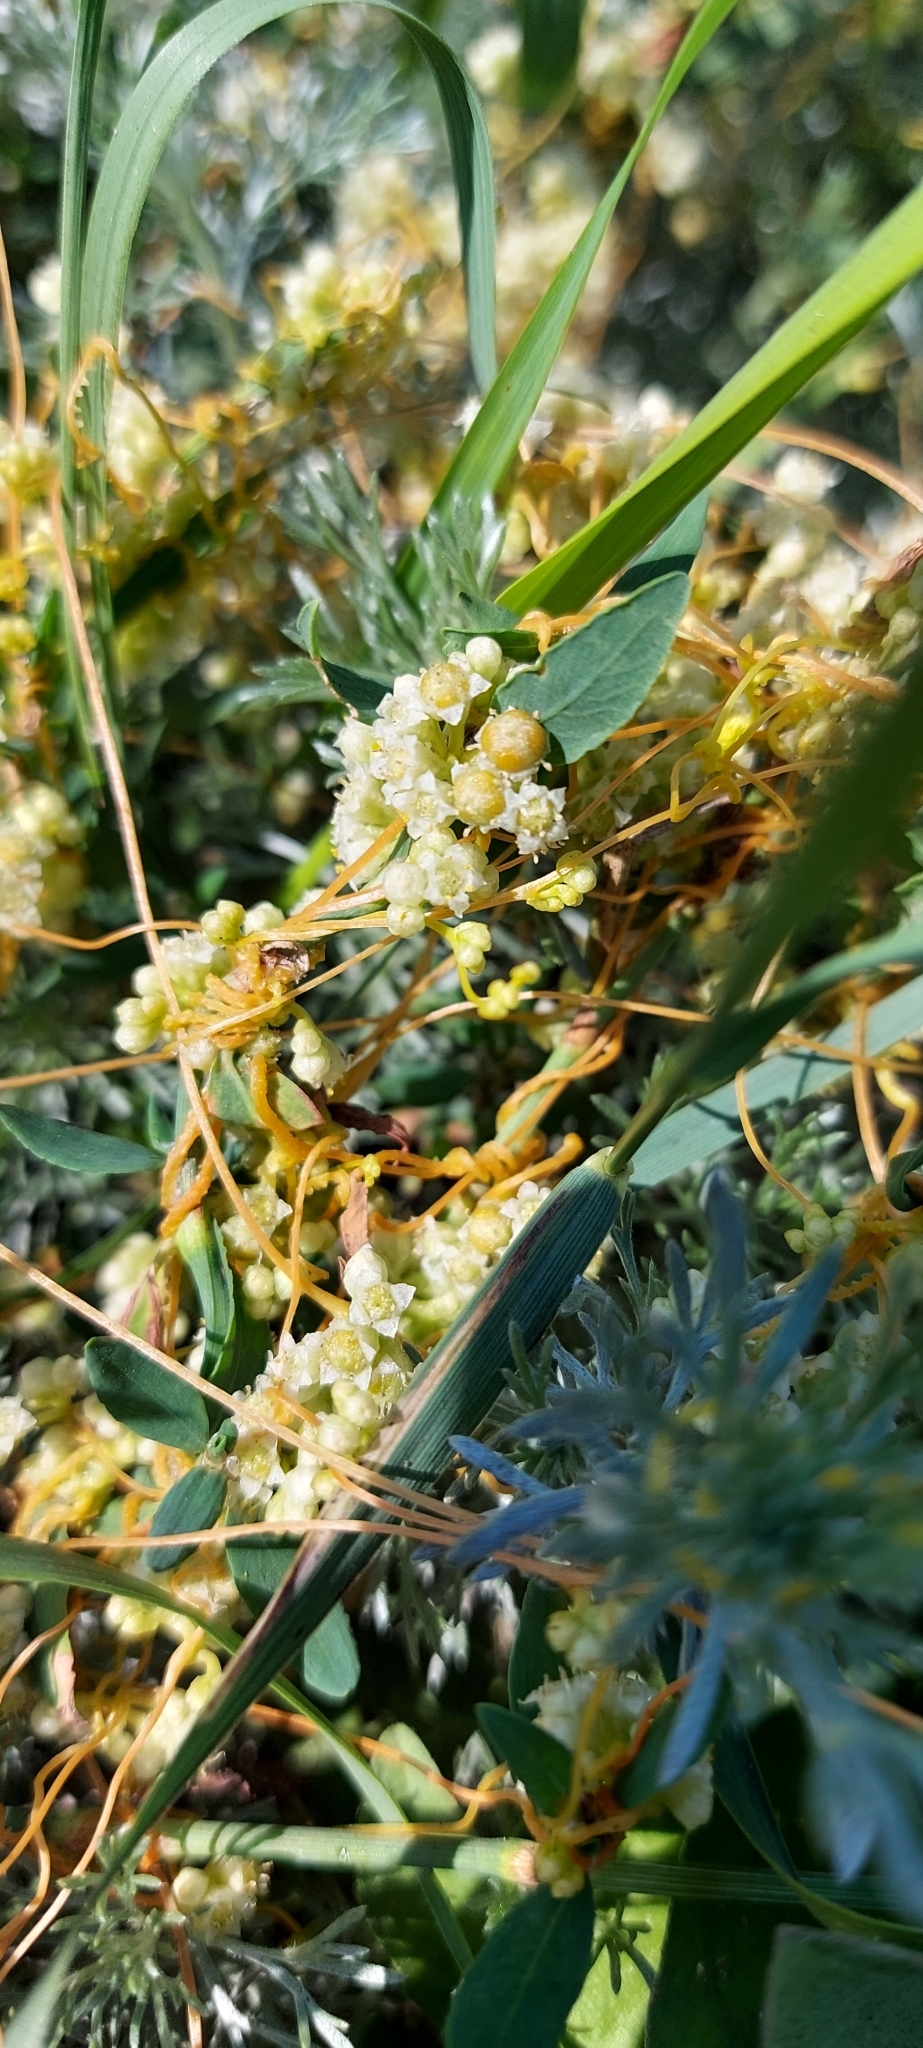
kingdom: Plantae
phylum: Tracheophyta
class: Magnoliopsida
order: Solanales
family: Convolvulaceae
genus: Cuscuta
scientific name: Cuscuta campestris
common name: Yellow dodder
